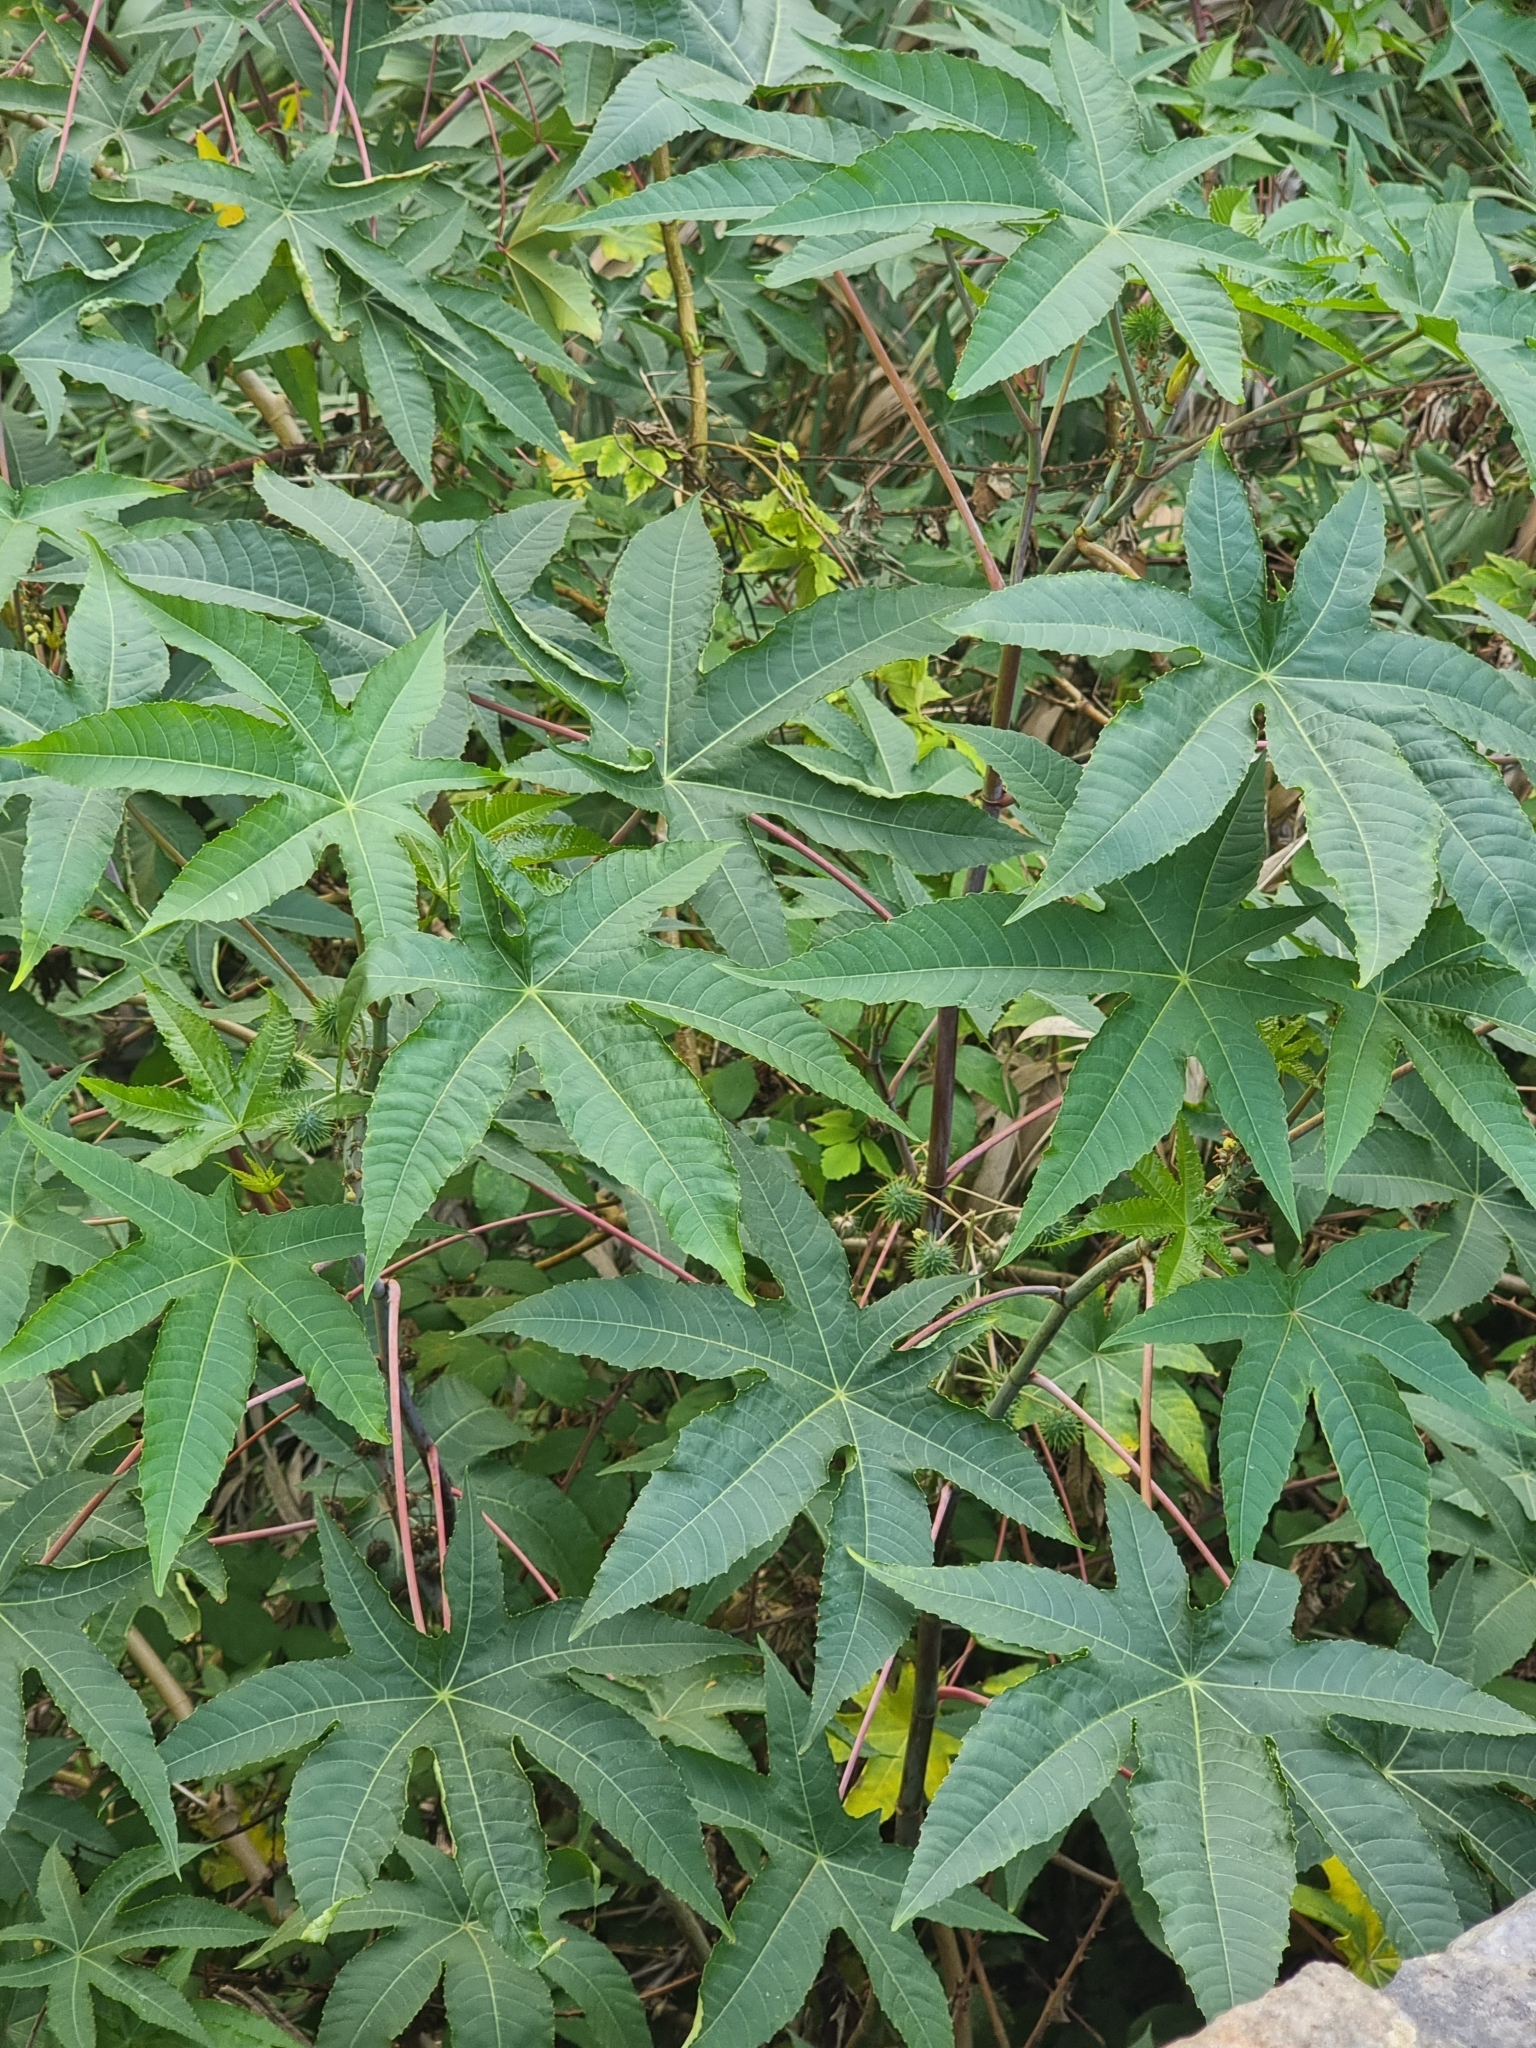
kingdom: Plantae
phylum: Tracheophyta
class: Magnoliopsida
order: Malpighiales
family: Euphorbiaceae
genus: Ricinus
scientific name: Ricinus communis
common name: Castor-oil-plant
